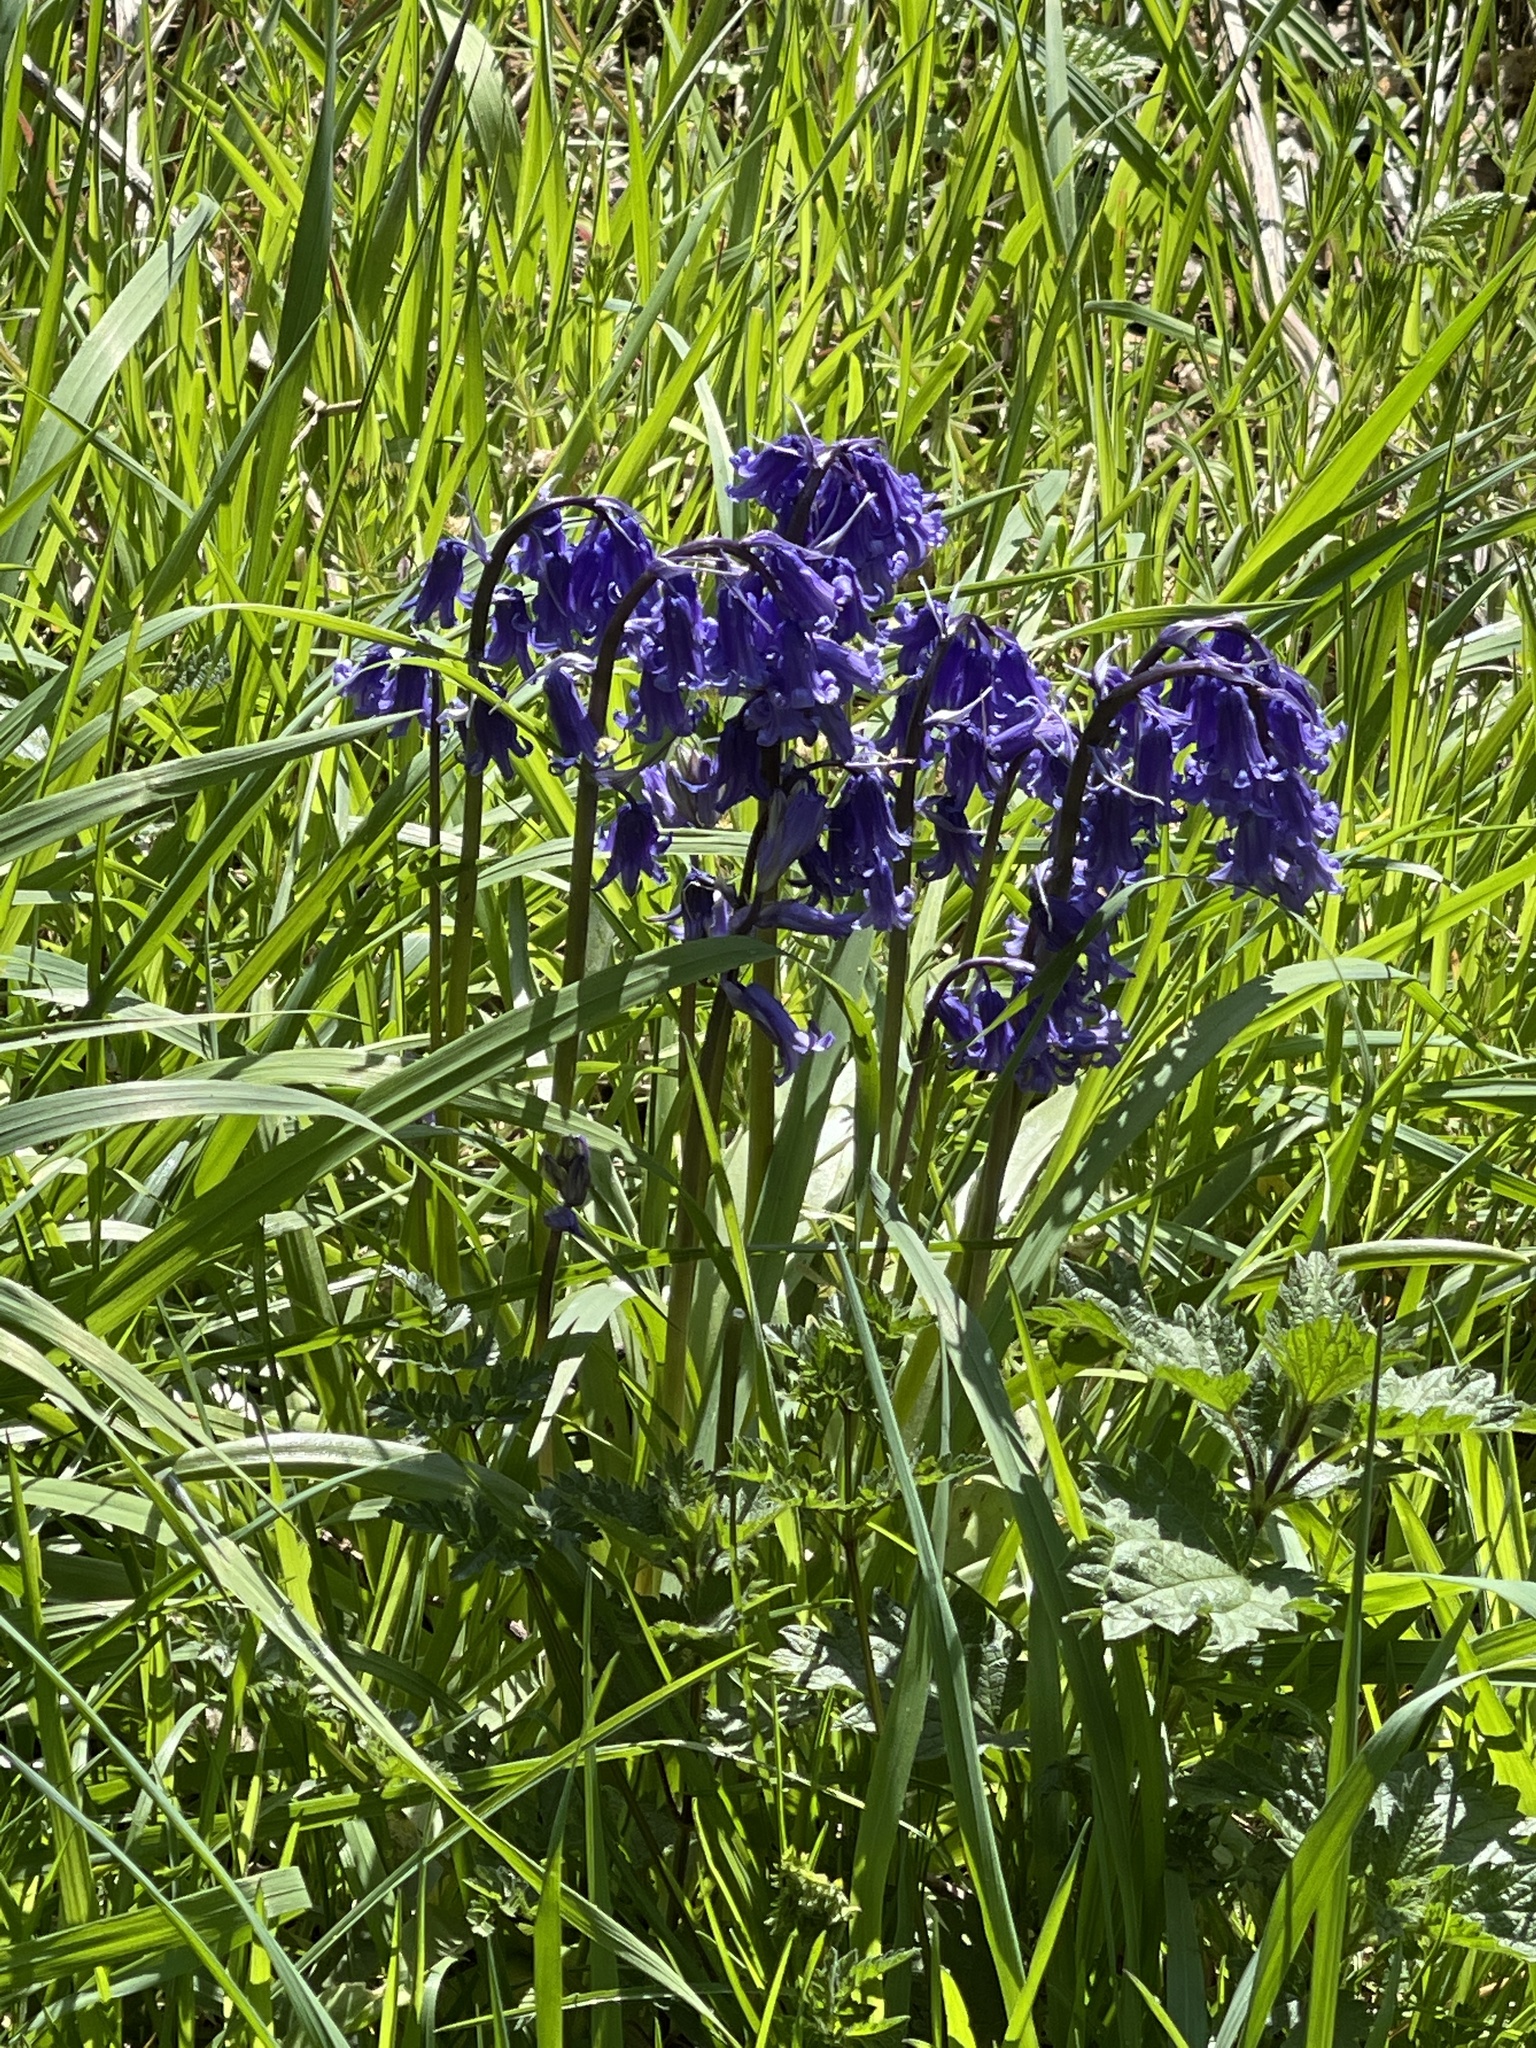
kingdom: Plantae
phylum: Tracheophyta
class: Liliopsida
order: Asparagales
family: Asparagaceae
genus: Hyacinthoides
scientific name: Hyacinthoides non-scripta
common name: Bluebell
